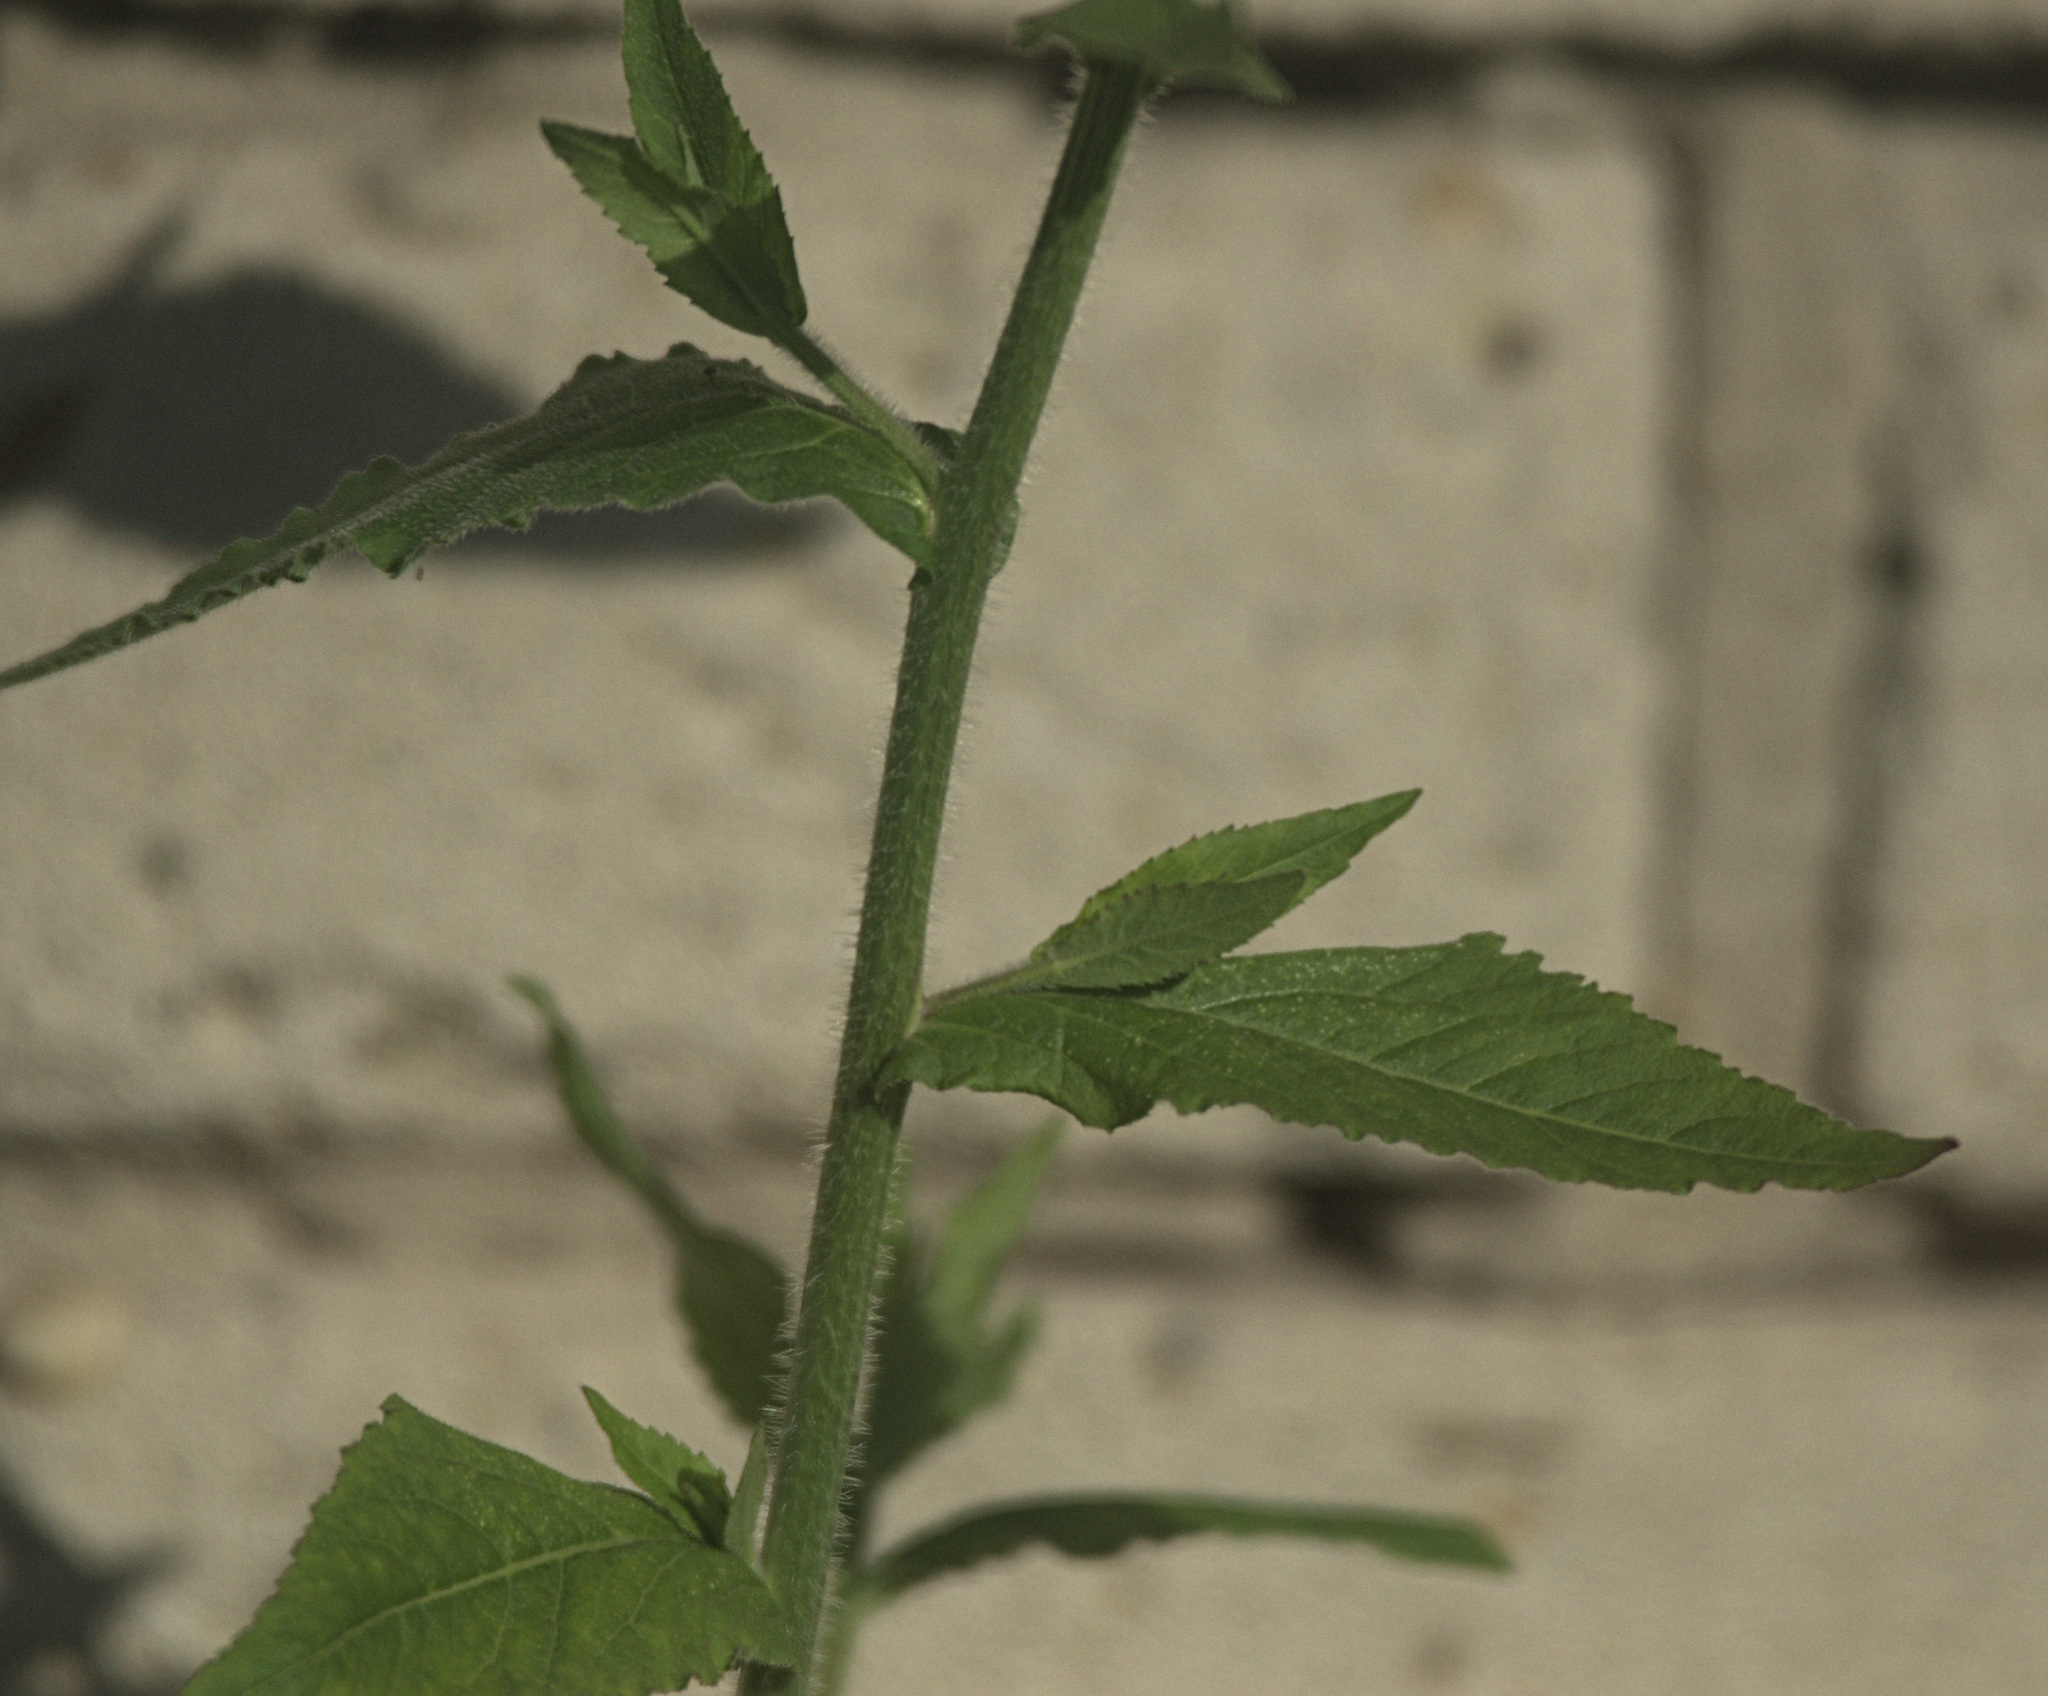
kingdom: Plantae
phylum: Tracheophyta
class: Magnoliopsida
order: Brassicales
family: Brassicaceae
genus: Catolobus
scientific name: Catolobus pendulus
